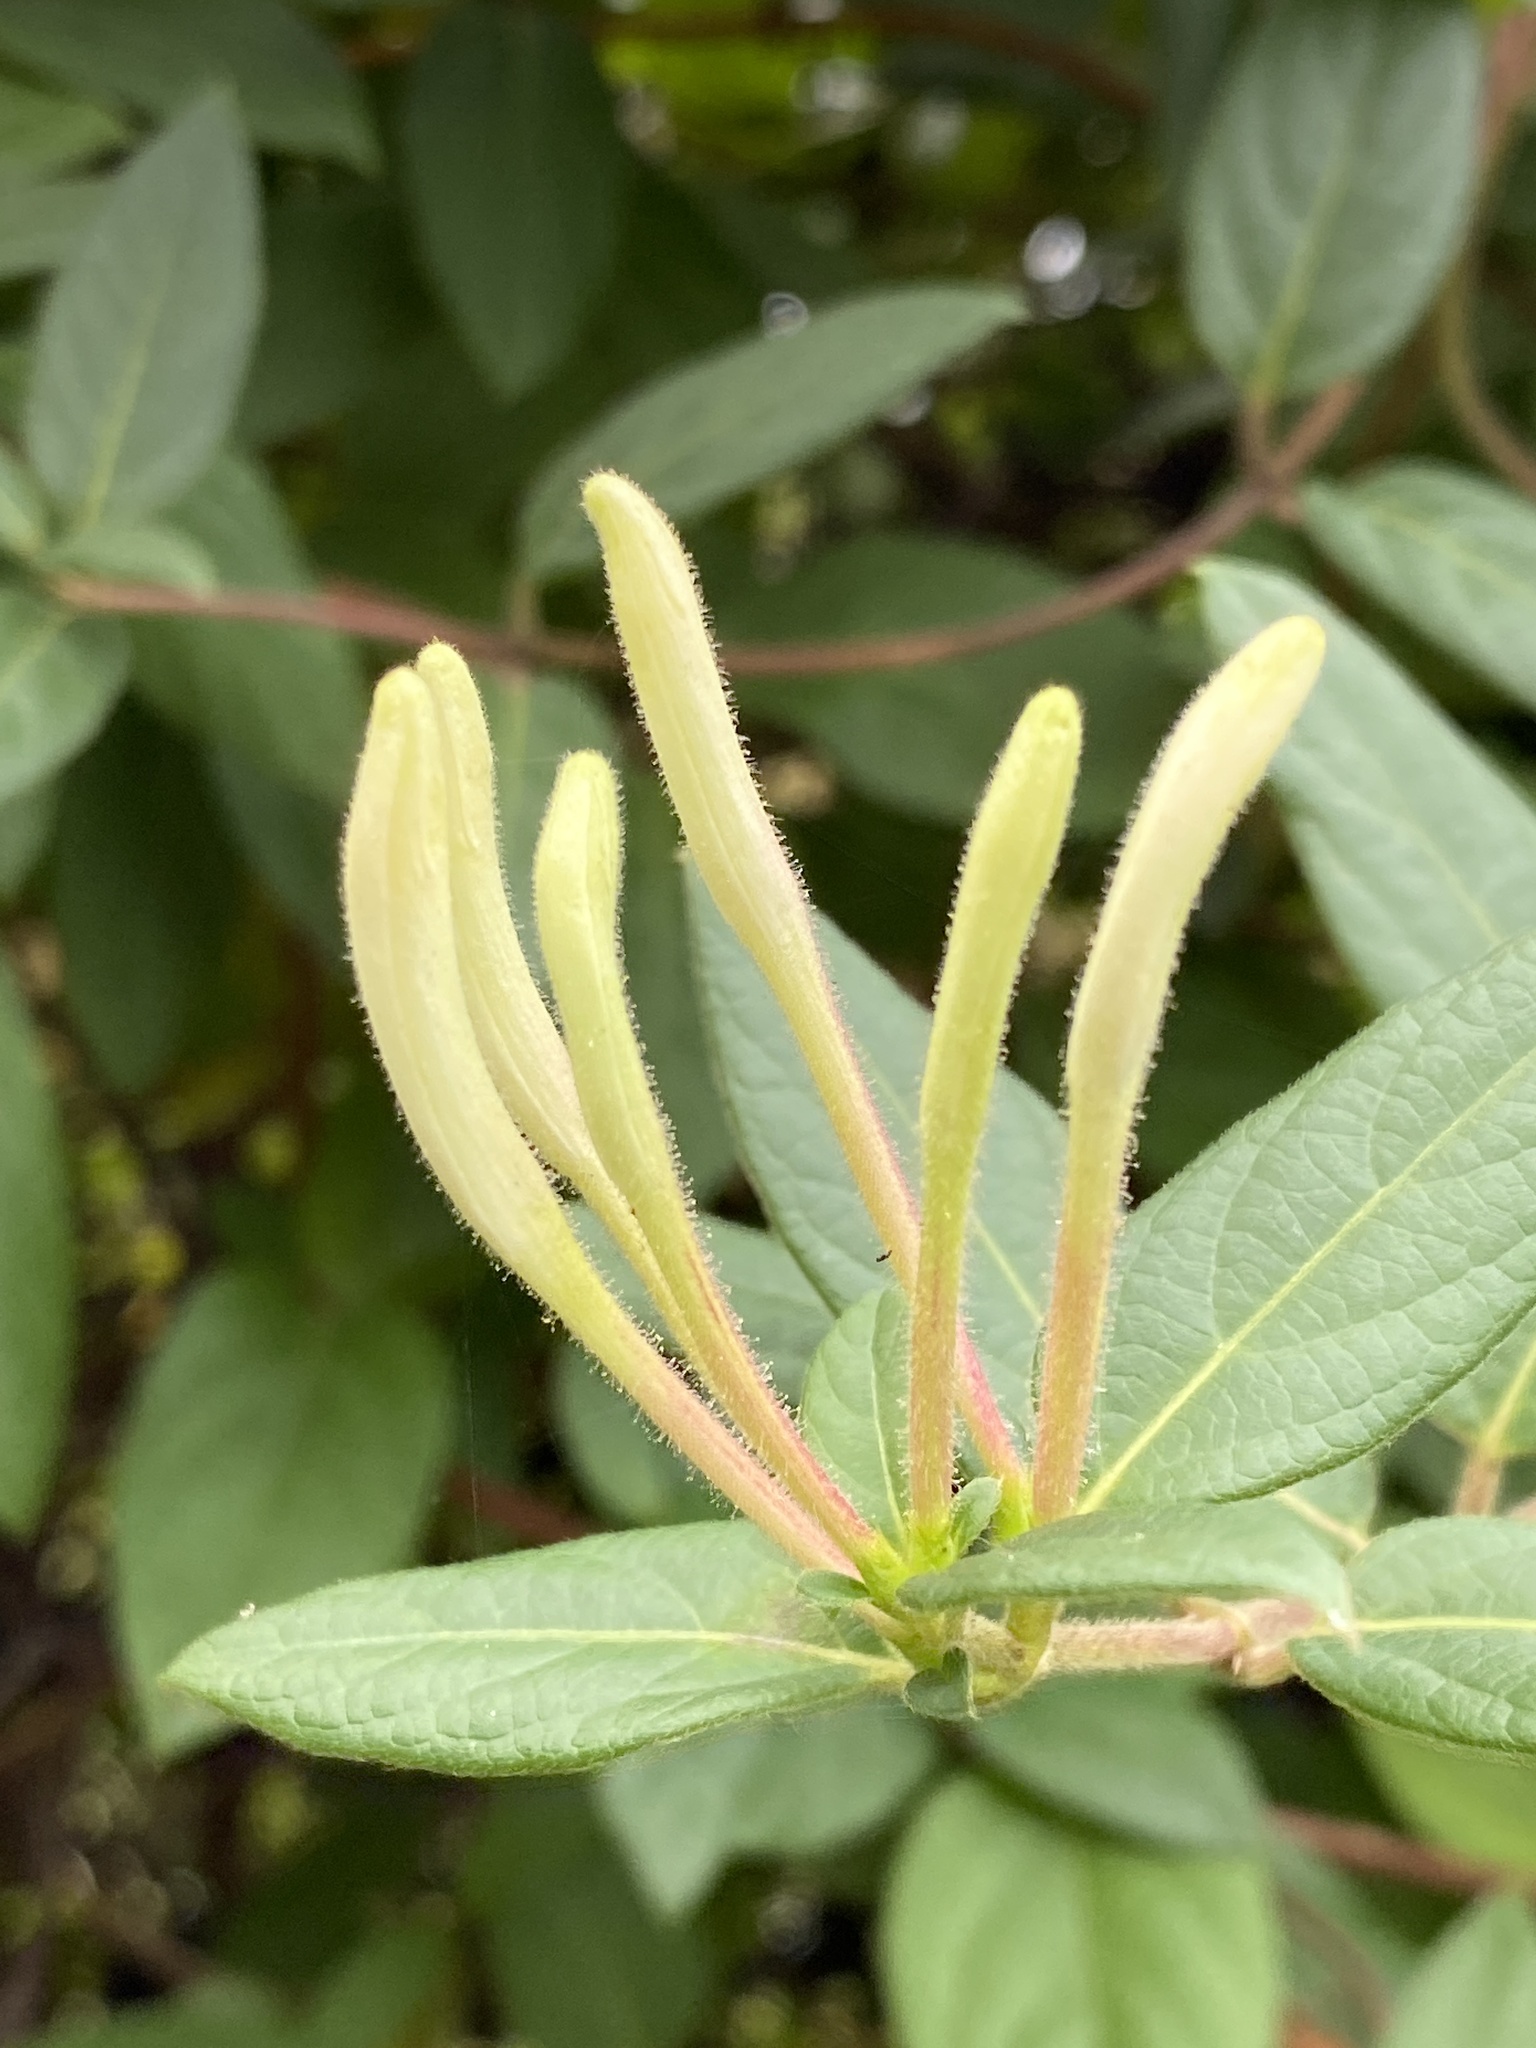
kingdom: Plantae
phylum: Tracheophyta
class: Magnoliopsida
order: Dipsacales
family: Caprifoliaceae
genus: Lonicera
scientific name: Lonicera japonica
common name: Japanese honeysuckle
